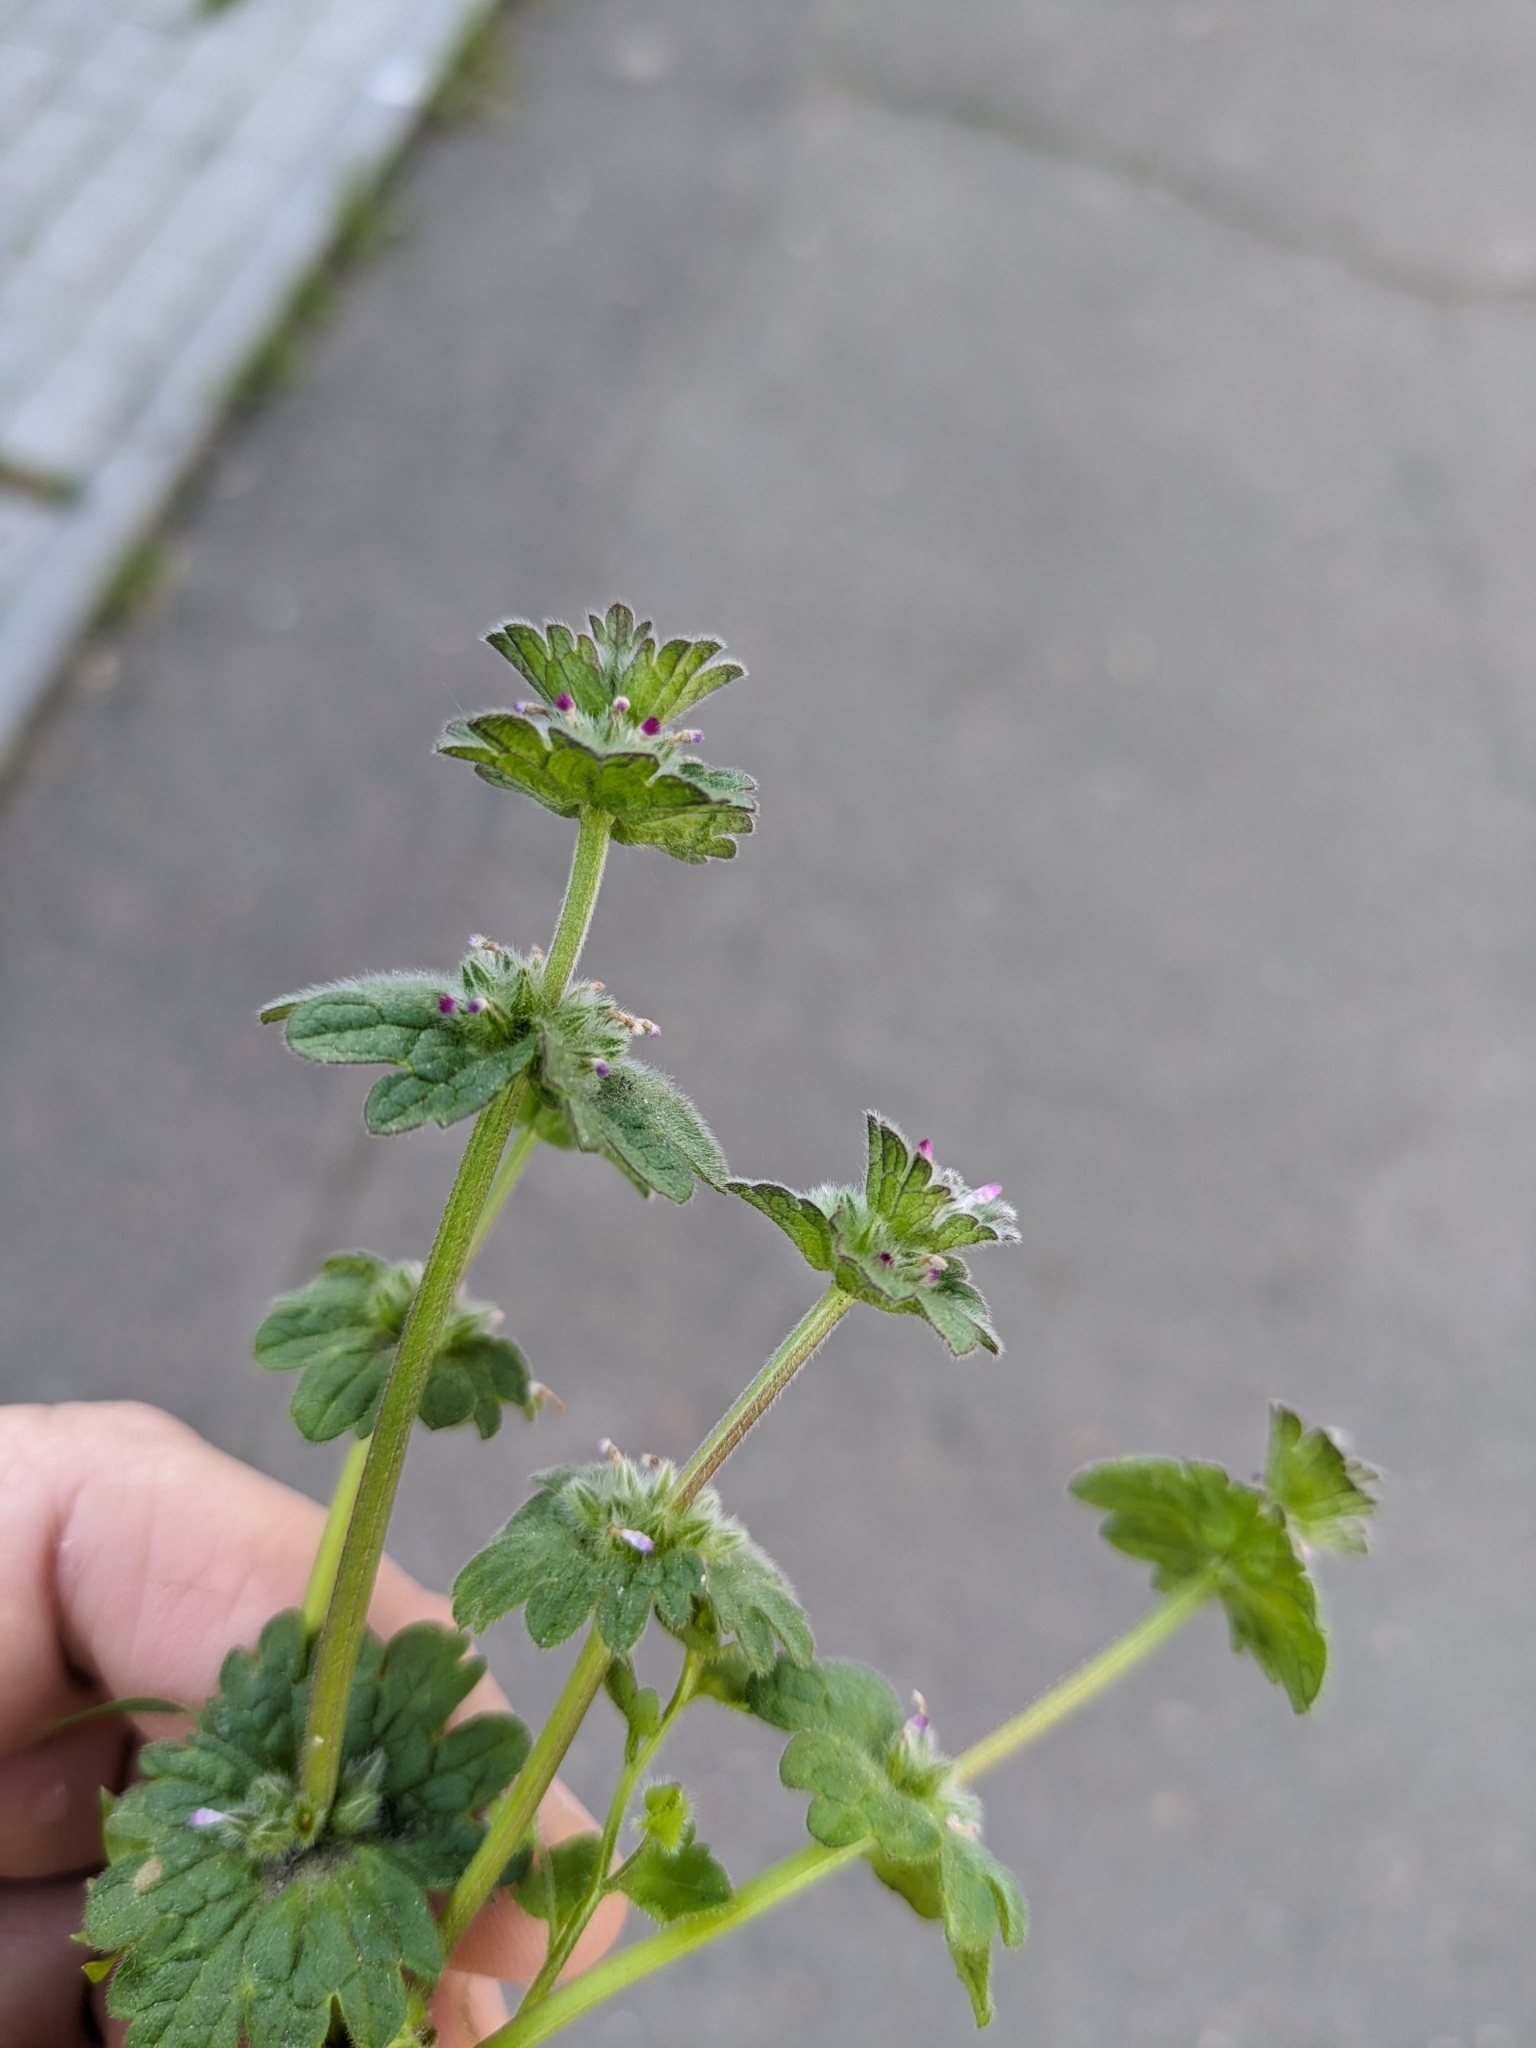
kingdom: Plantae
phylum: Tracheophyta
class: Magnoliopsida
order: Lamiales
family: Lamiaceae
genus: Lamium
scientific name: Lamium amplexicaule
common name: Henbit dead-nettle
